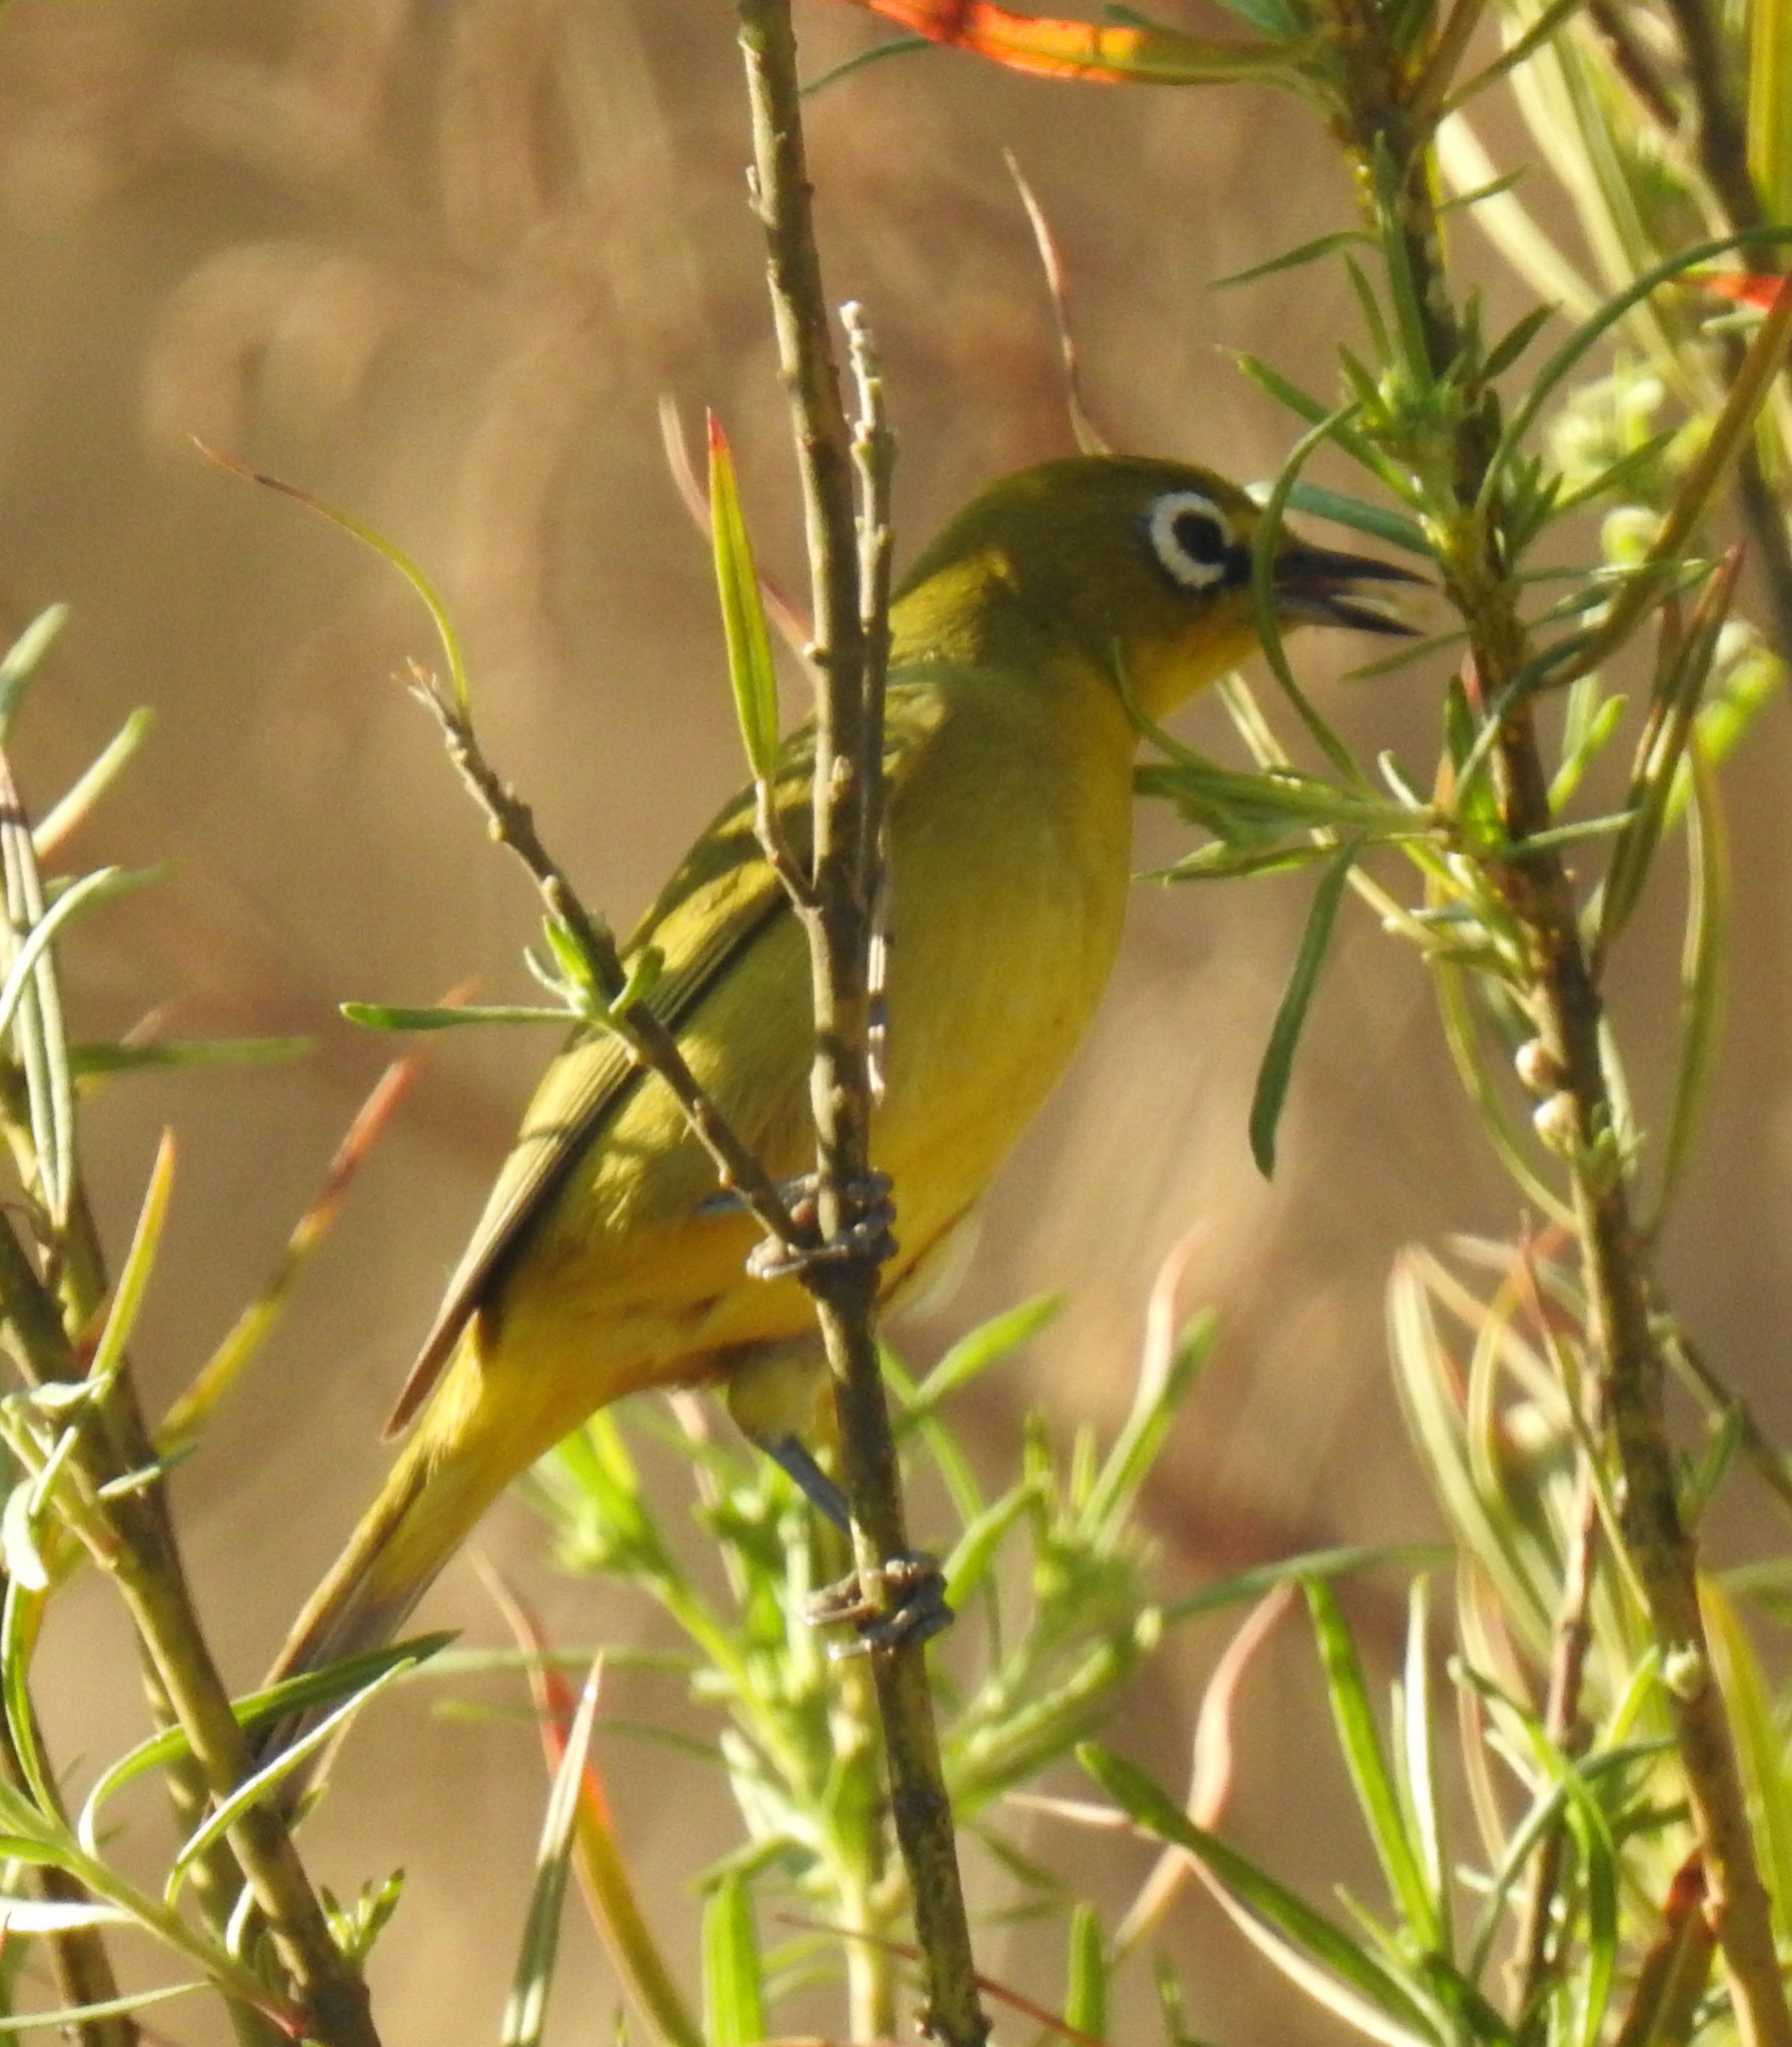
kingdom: Animalia
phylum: Chordata
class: Aves
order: Passeriformes
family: Zosteropidae
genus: Zosterops
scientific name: Zosterops virens
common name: Cape white-eye
